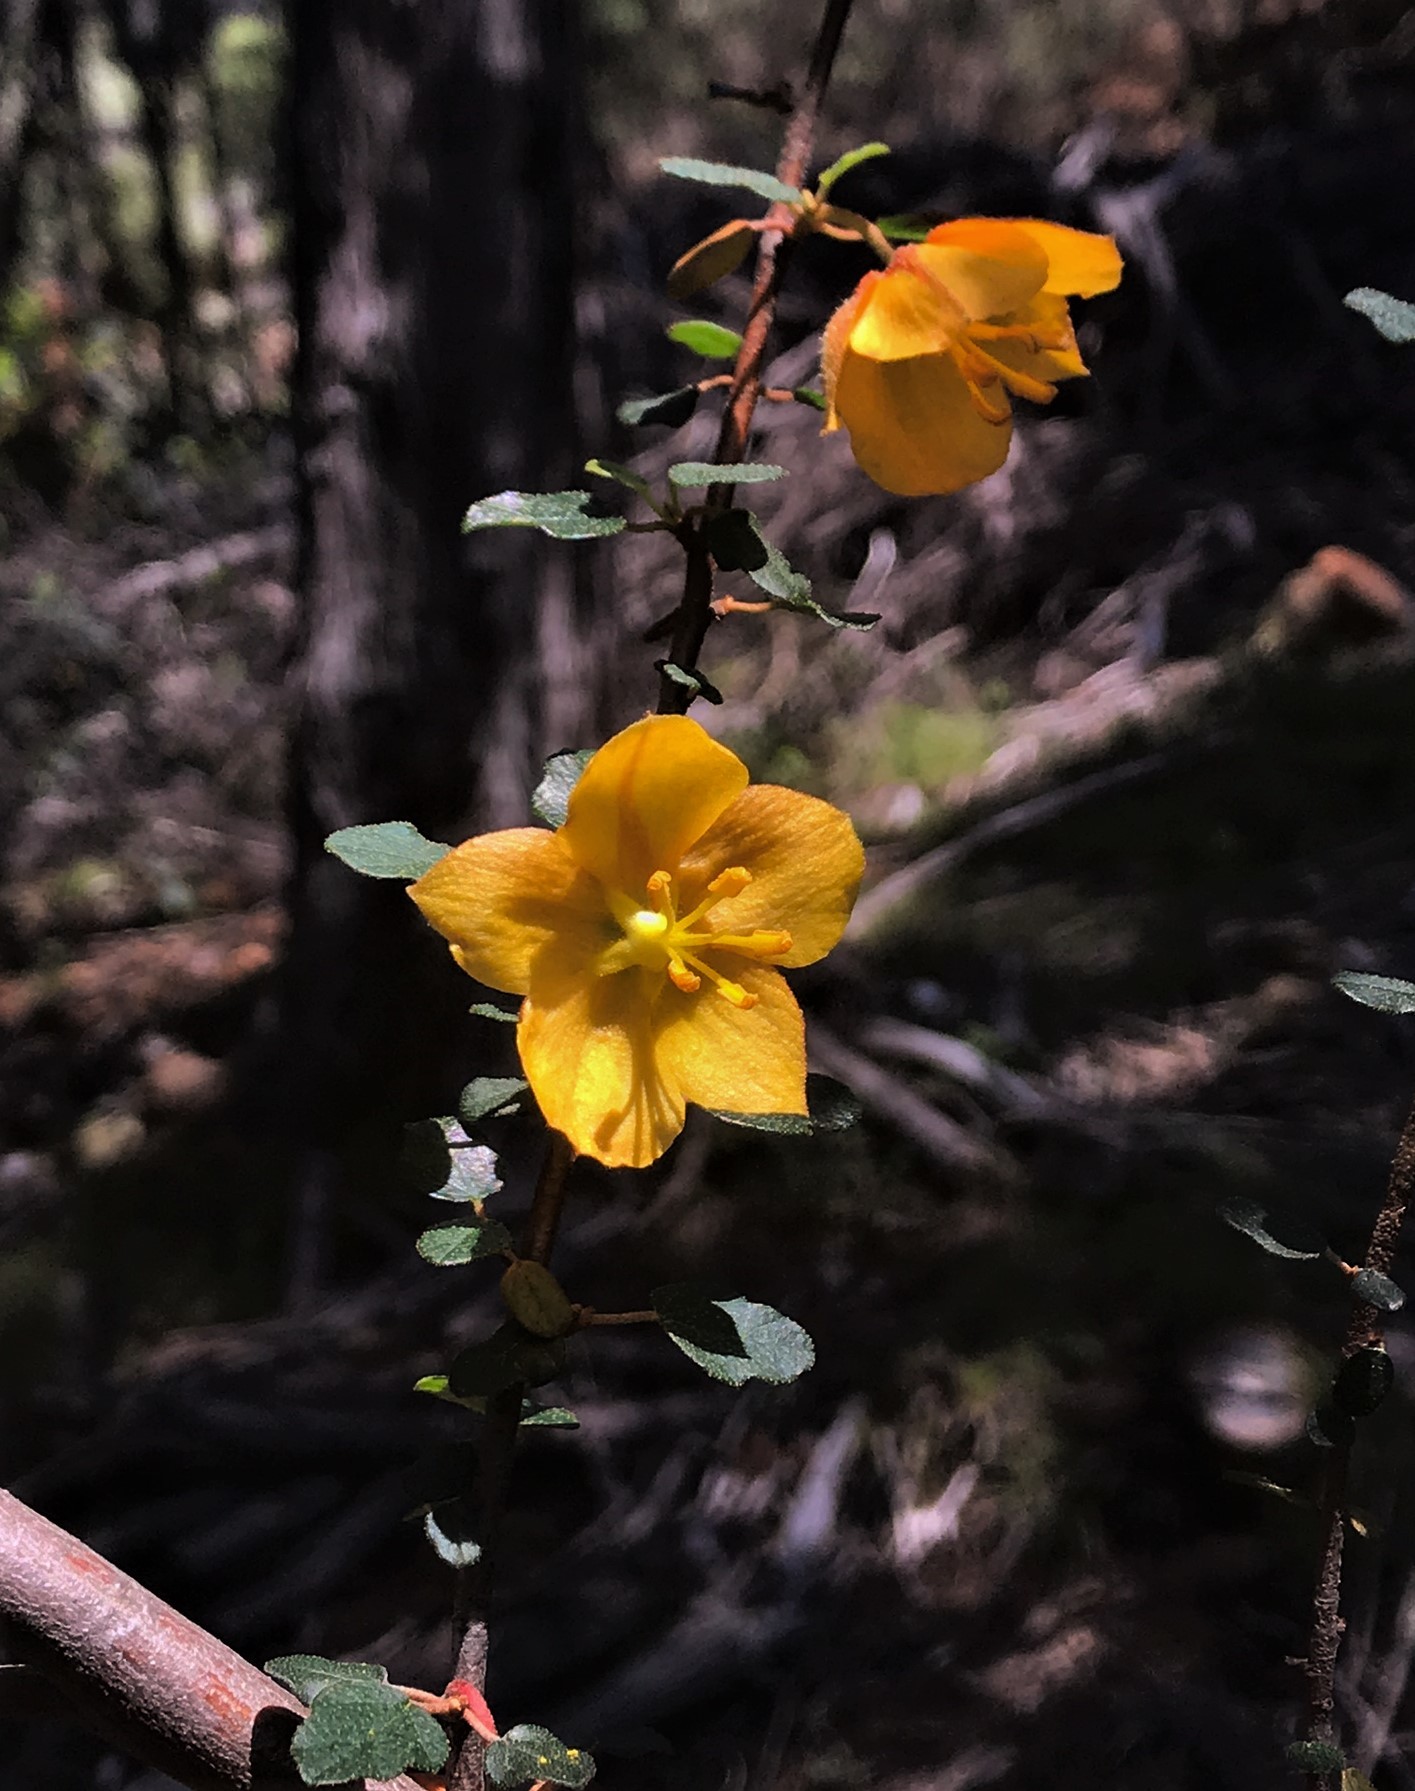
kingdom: Plantae
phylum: Tracheophyta
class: Magnoliopsida
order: Malvales
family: Malvaceae
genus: Fremontodendron
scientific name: Fremontodendron californicum
